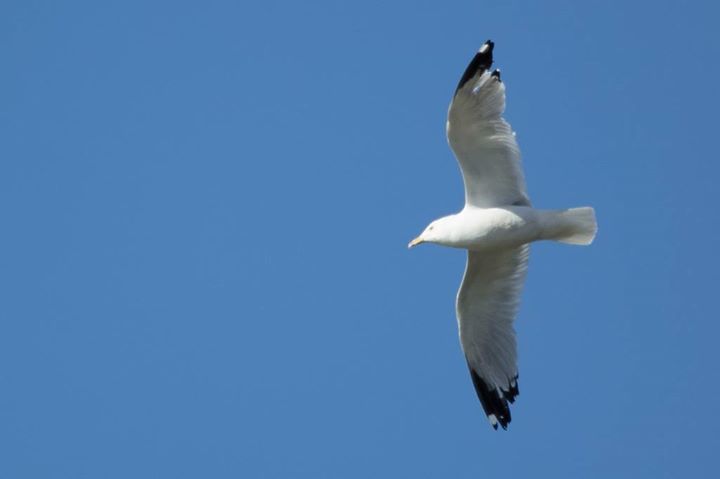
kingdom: Animalia
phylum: Chordata
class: Aves
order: Charadriiformes
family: Laridae
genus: Larus
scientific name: Larus delawarensis
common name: Ring-billed gull
